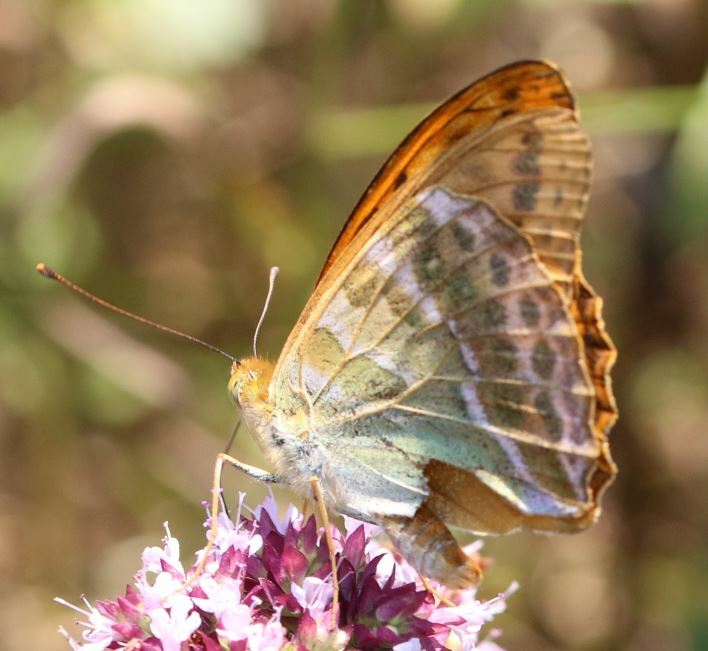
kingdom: Animalia
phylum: Arthropoda
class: Insecta
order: Lepidoptera
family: Nymphalidae
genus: Argynnis
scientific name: Argynnis paphia
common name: Silver-washed fritillary
